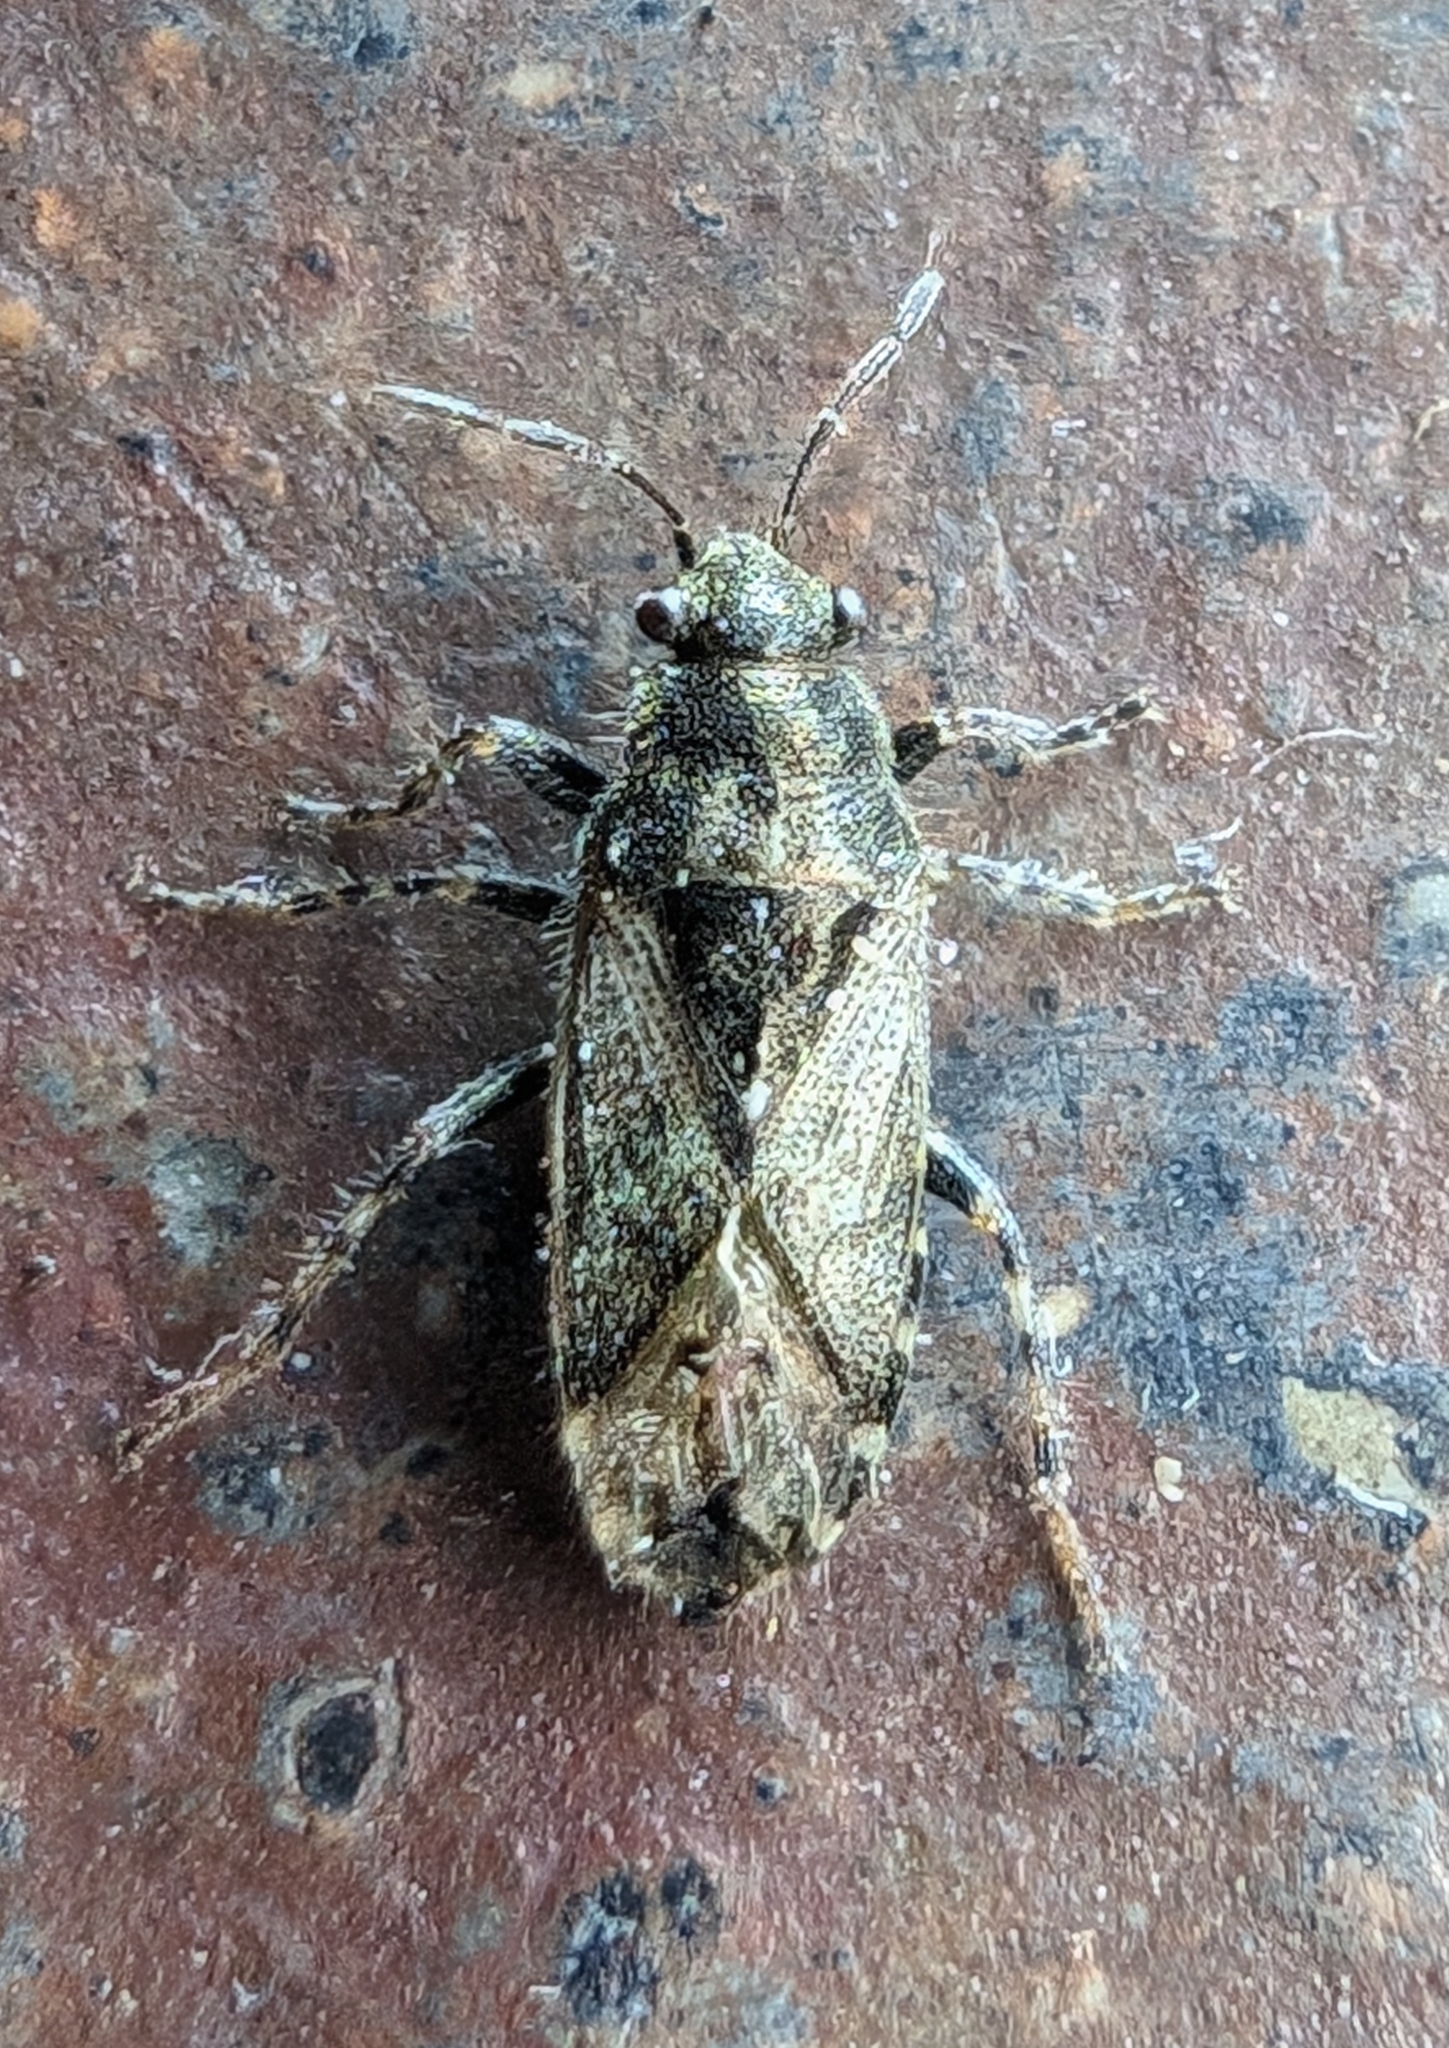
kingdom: Animalia
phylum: Arthropoda
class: Insecta
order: Hemiptera
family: Heterogastridae
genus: Heterogaster
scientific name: Heterogaster urticae
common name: Seed bug
